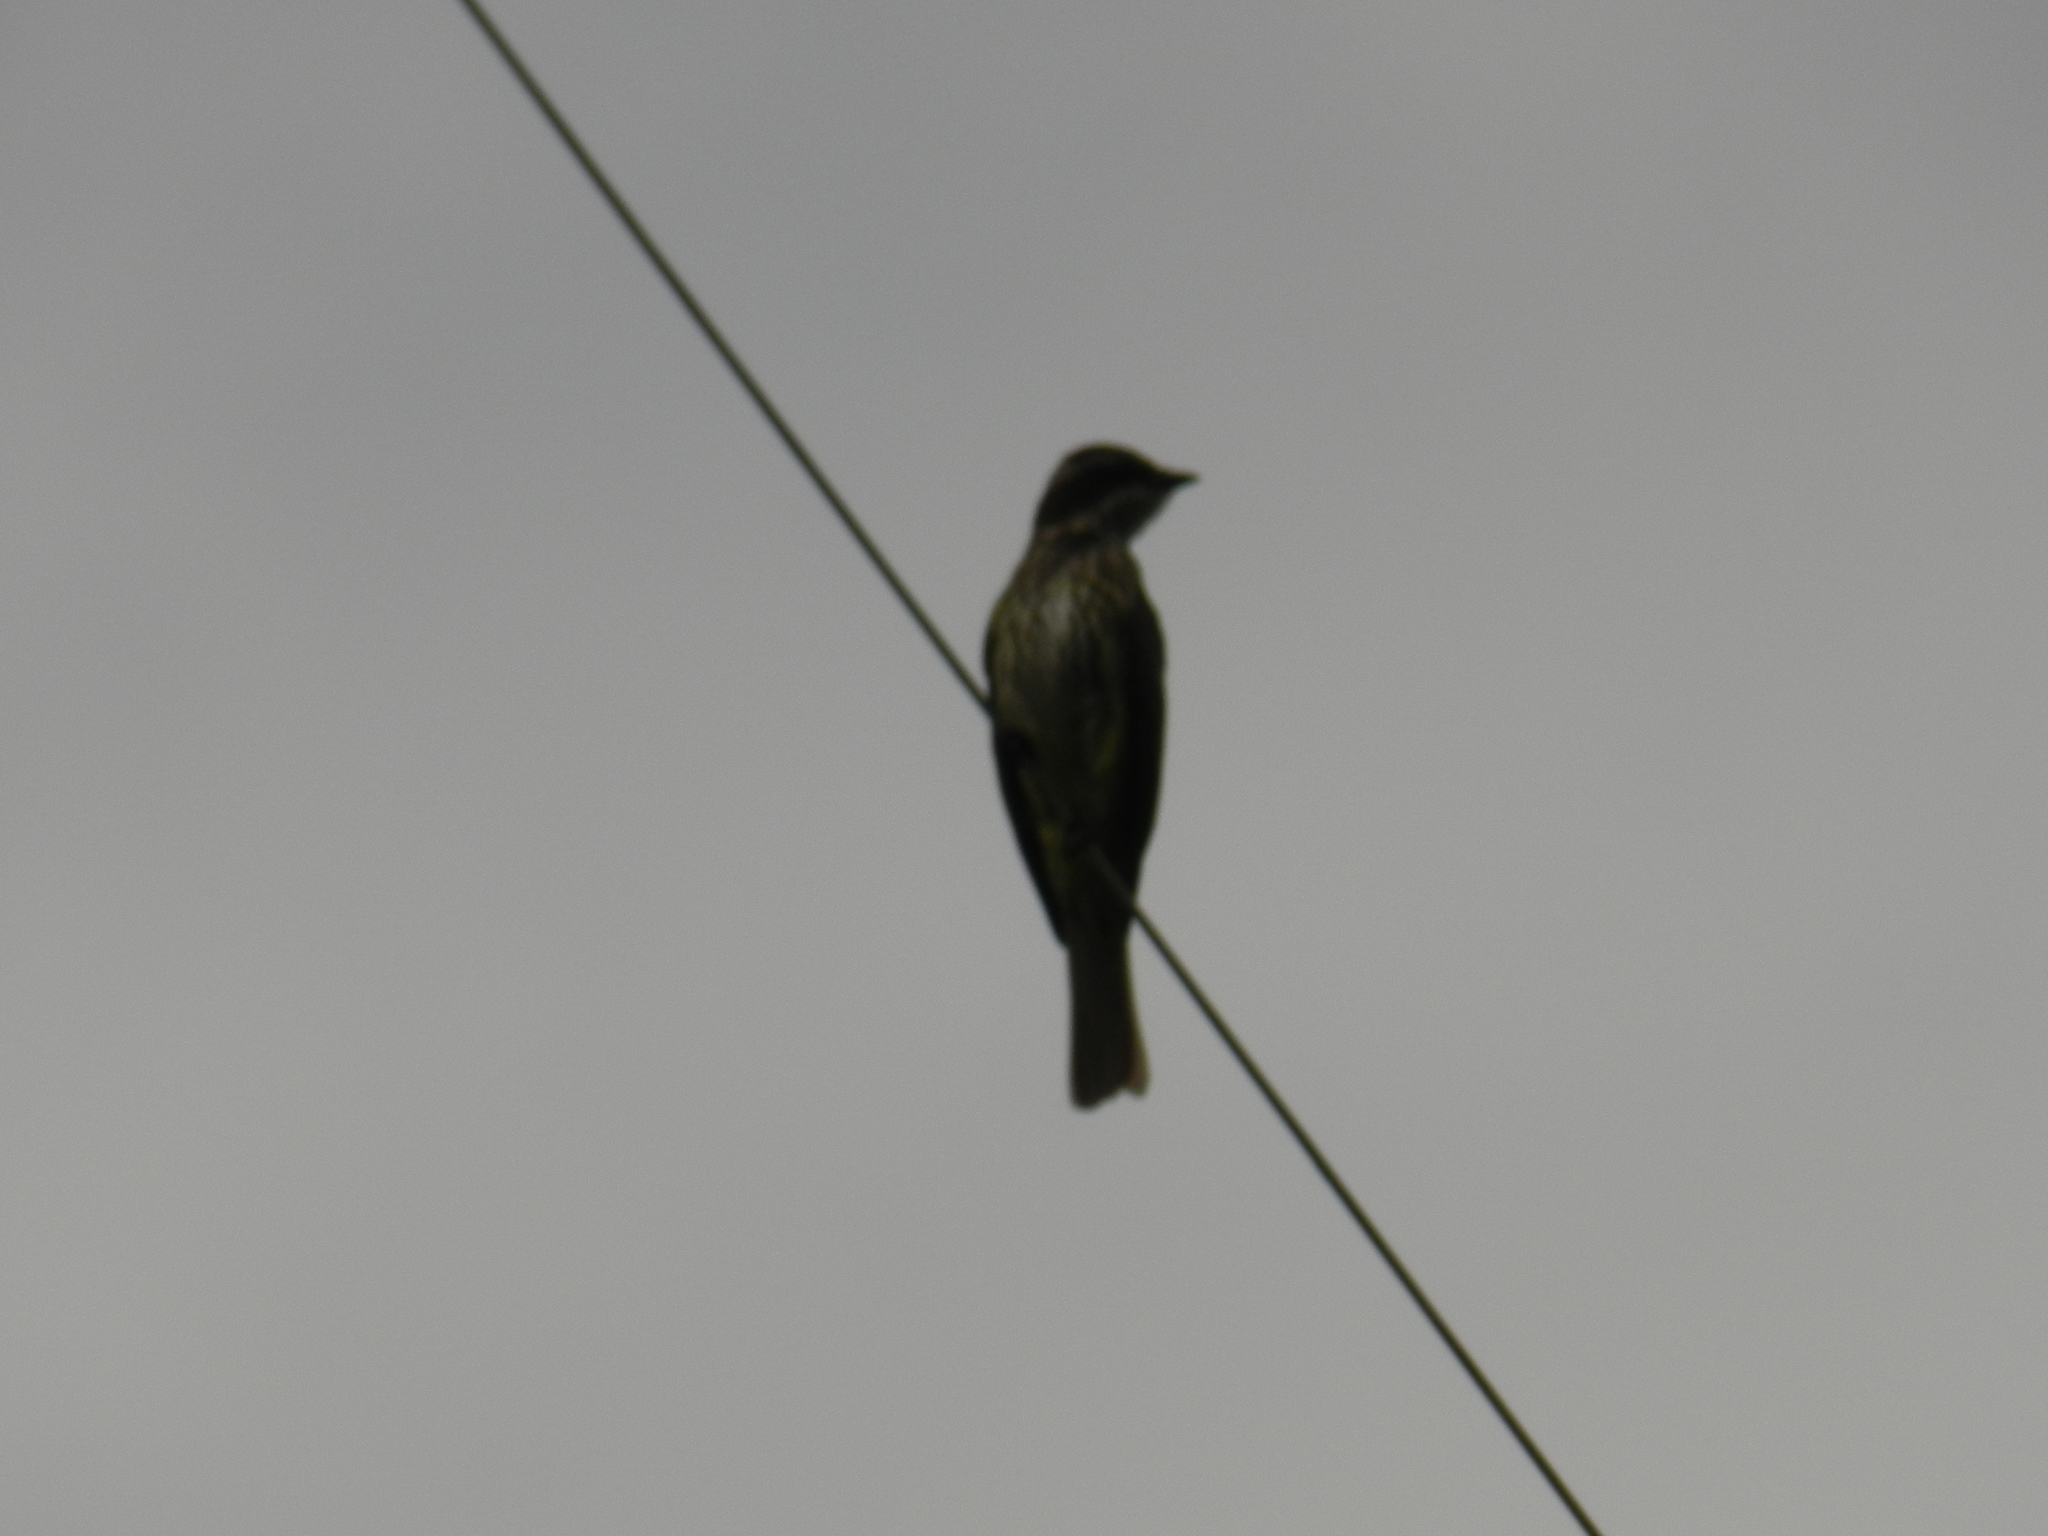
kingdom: Animalia
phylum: Chordata
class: Aves
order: Passeriformes
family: Tyrannidae
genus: Legatus
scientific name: Legatus leucophaius
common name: Piratic flycatcher
